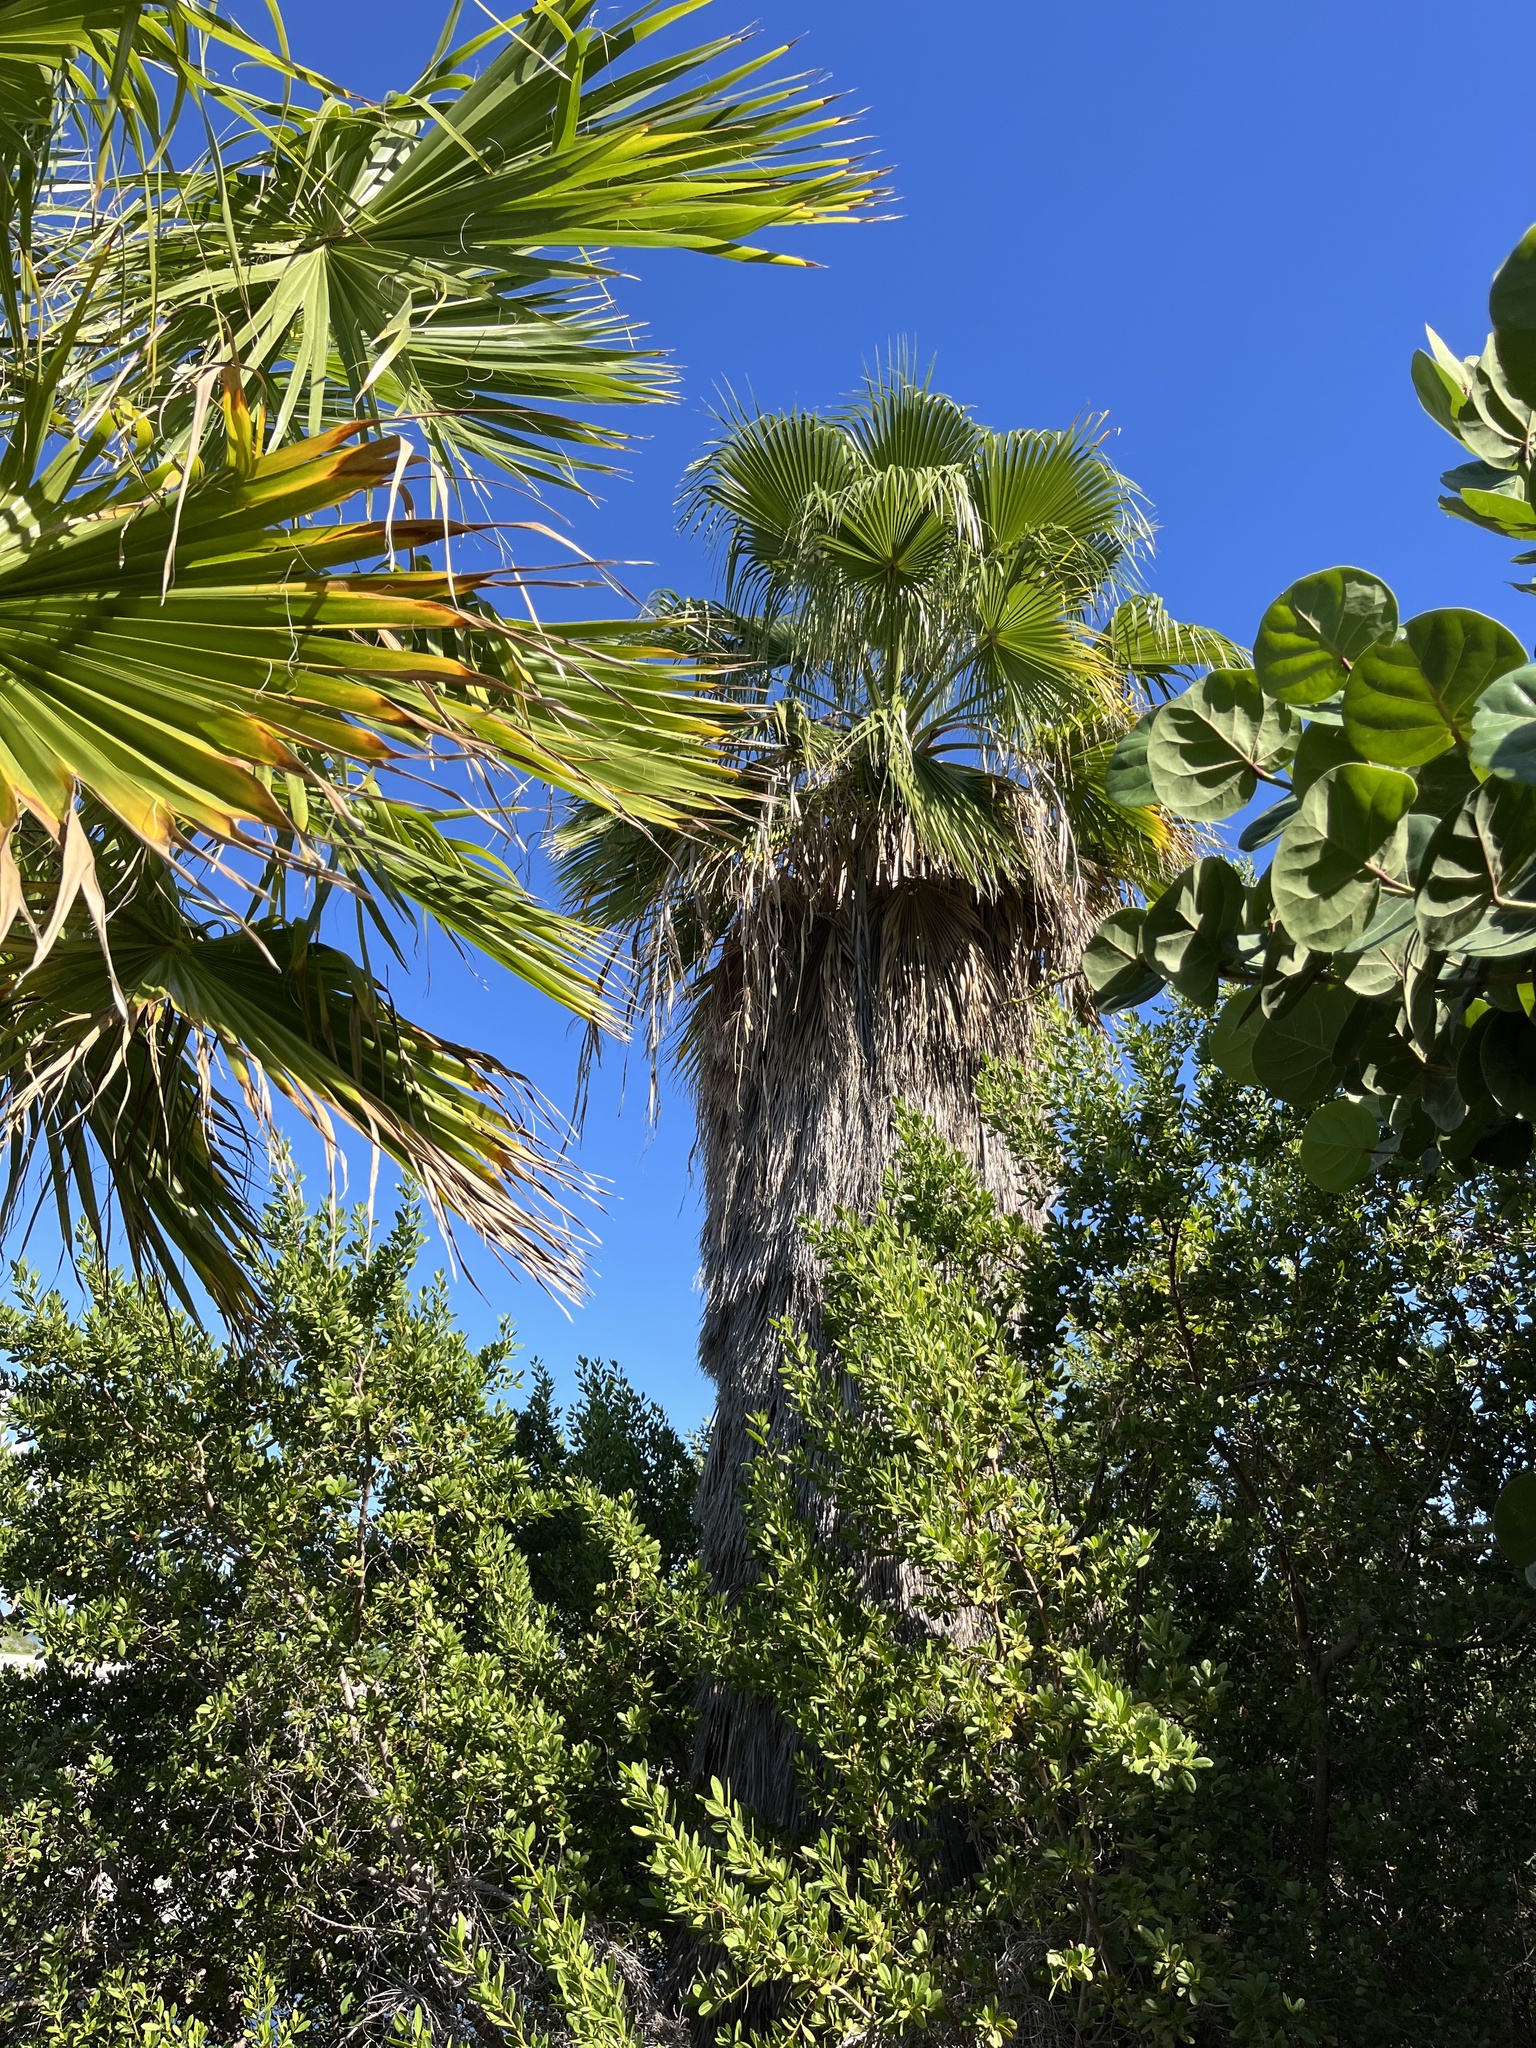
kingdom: Plantae
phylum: Tracheophyta
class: Liliopsida
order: Arecales
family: Arecaceae
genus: Washingtonia
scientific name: Washingtonia robusta
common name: Mexican fan palm
